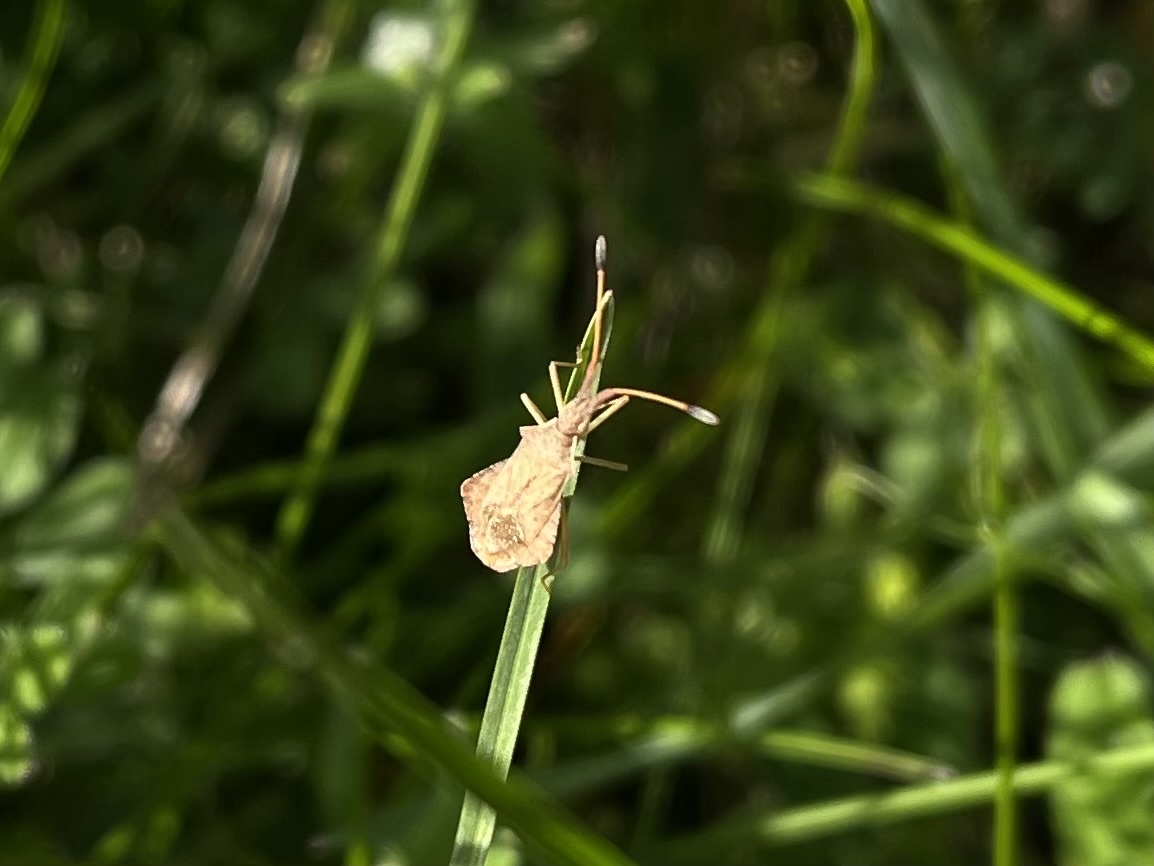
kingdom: Animalia
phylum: Arthropoda
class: Insecta
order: Hemiptera
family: Coreidae
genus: Syromastus
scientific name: Syromastus rhombeus
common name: Rhombic leatherbug
